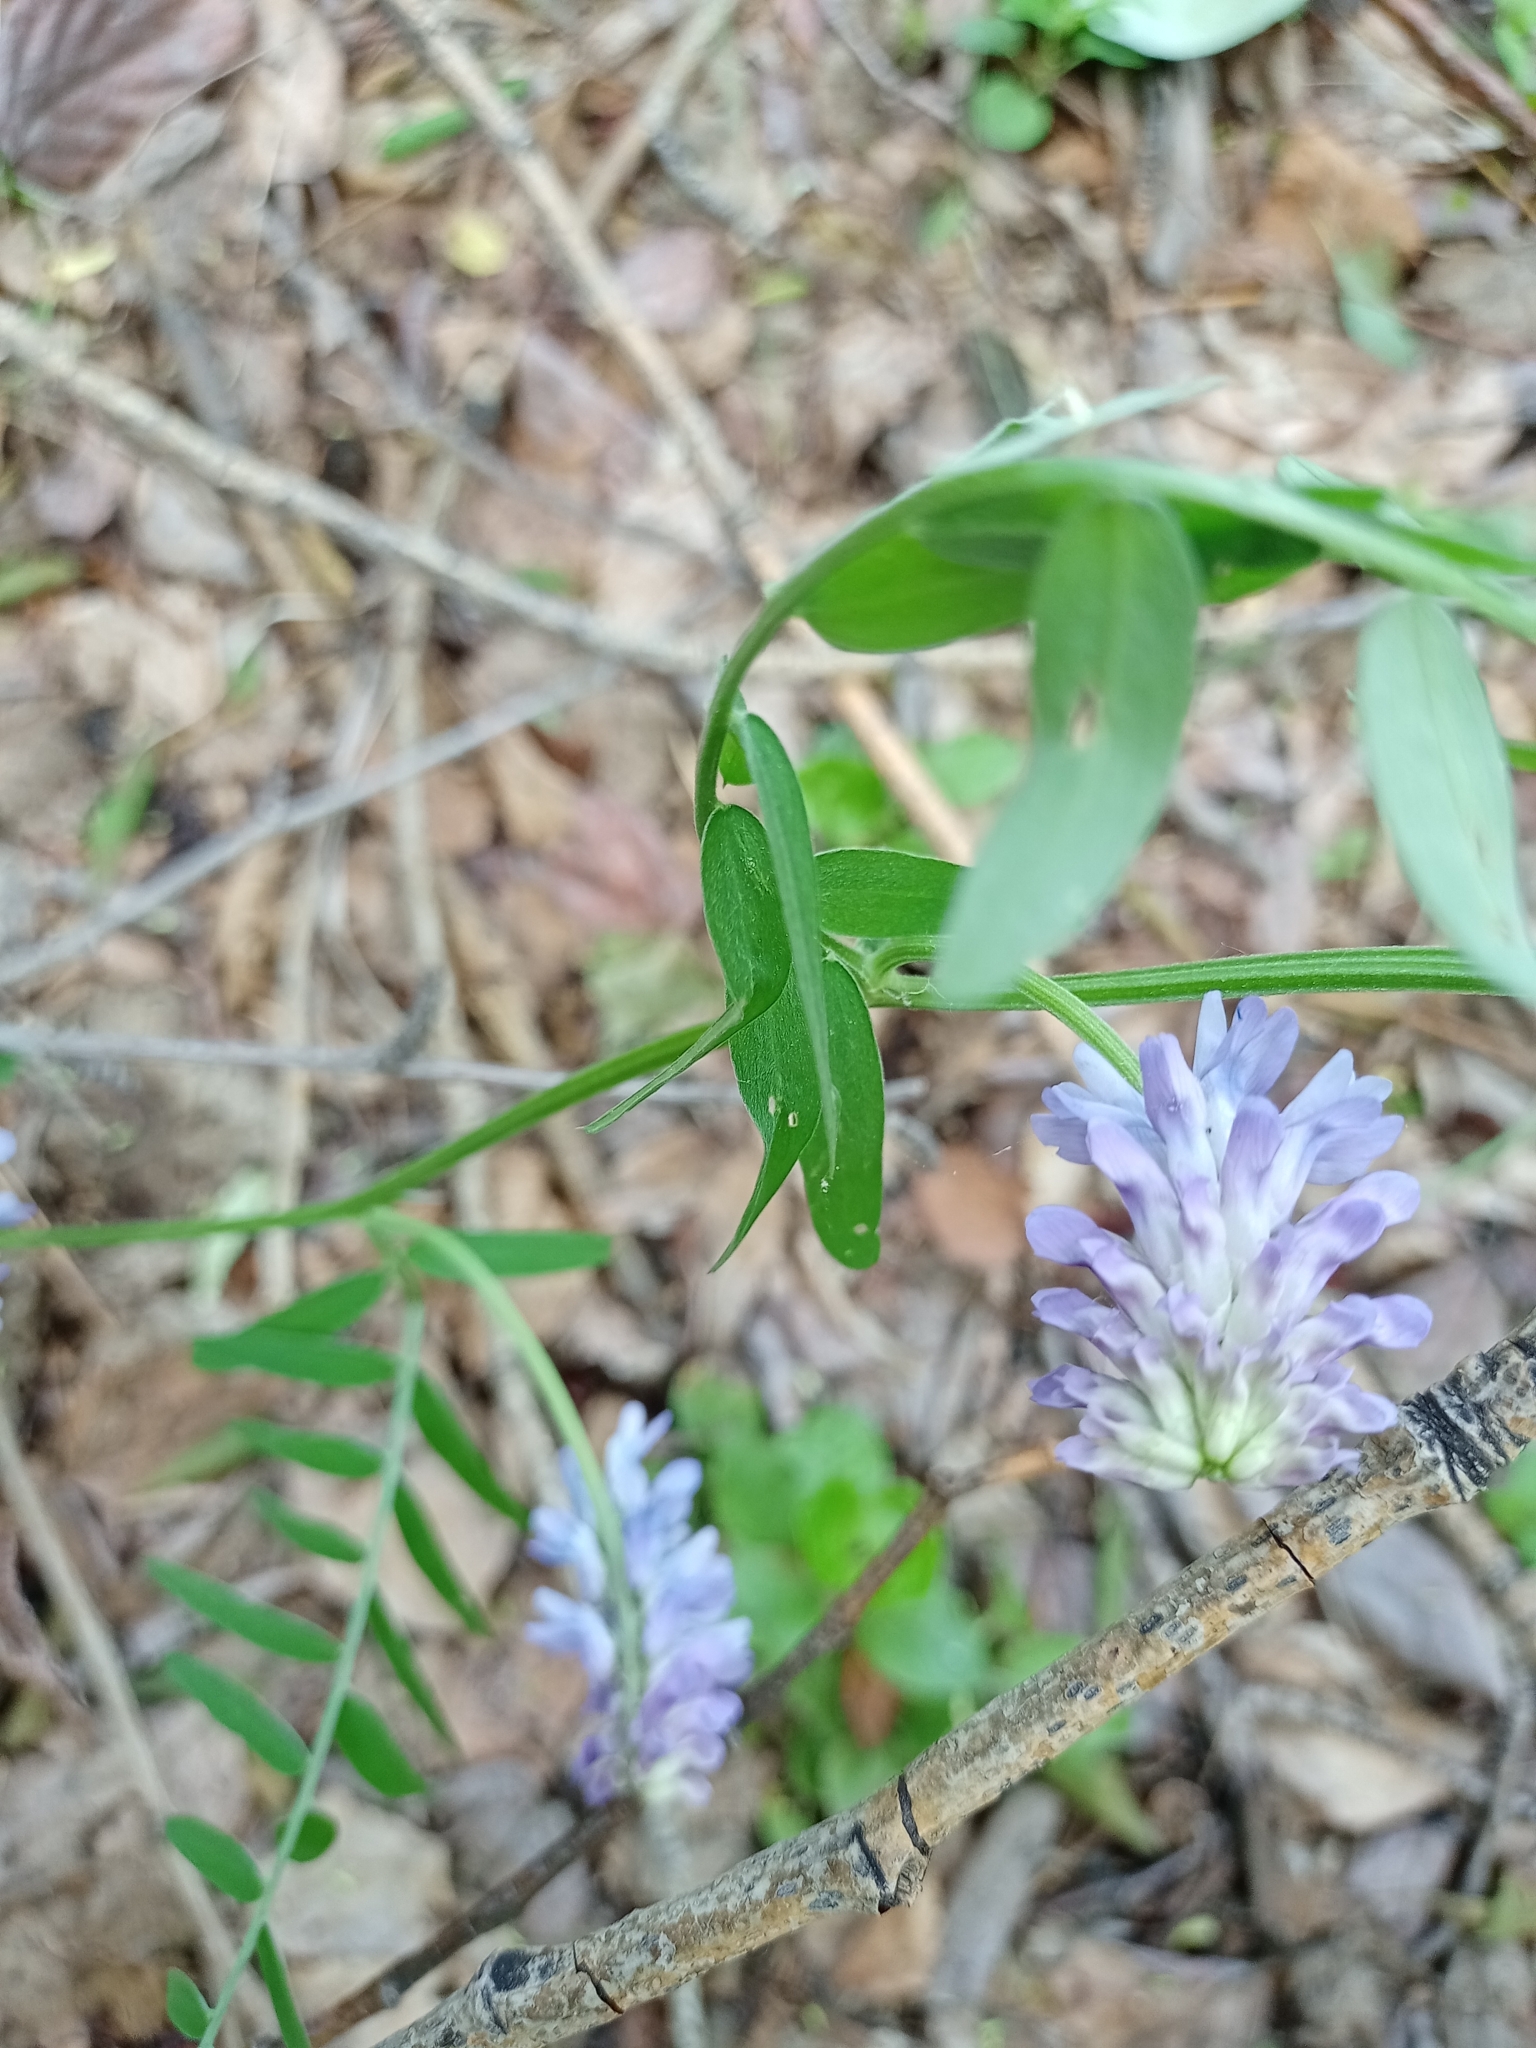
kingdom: Plantae
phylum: Tracheophyta
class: Magnoliopsida
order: Fabales
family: Fabaceae
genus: Vicia
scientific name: Vicia cracca
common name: Bird vetch
